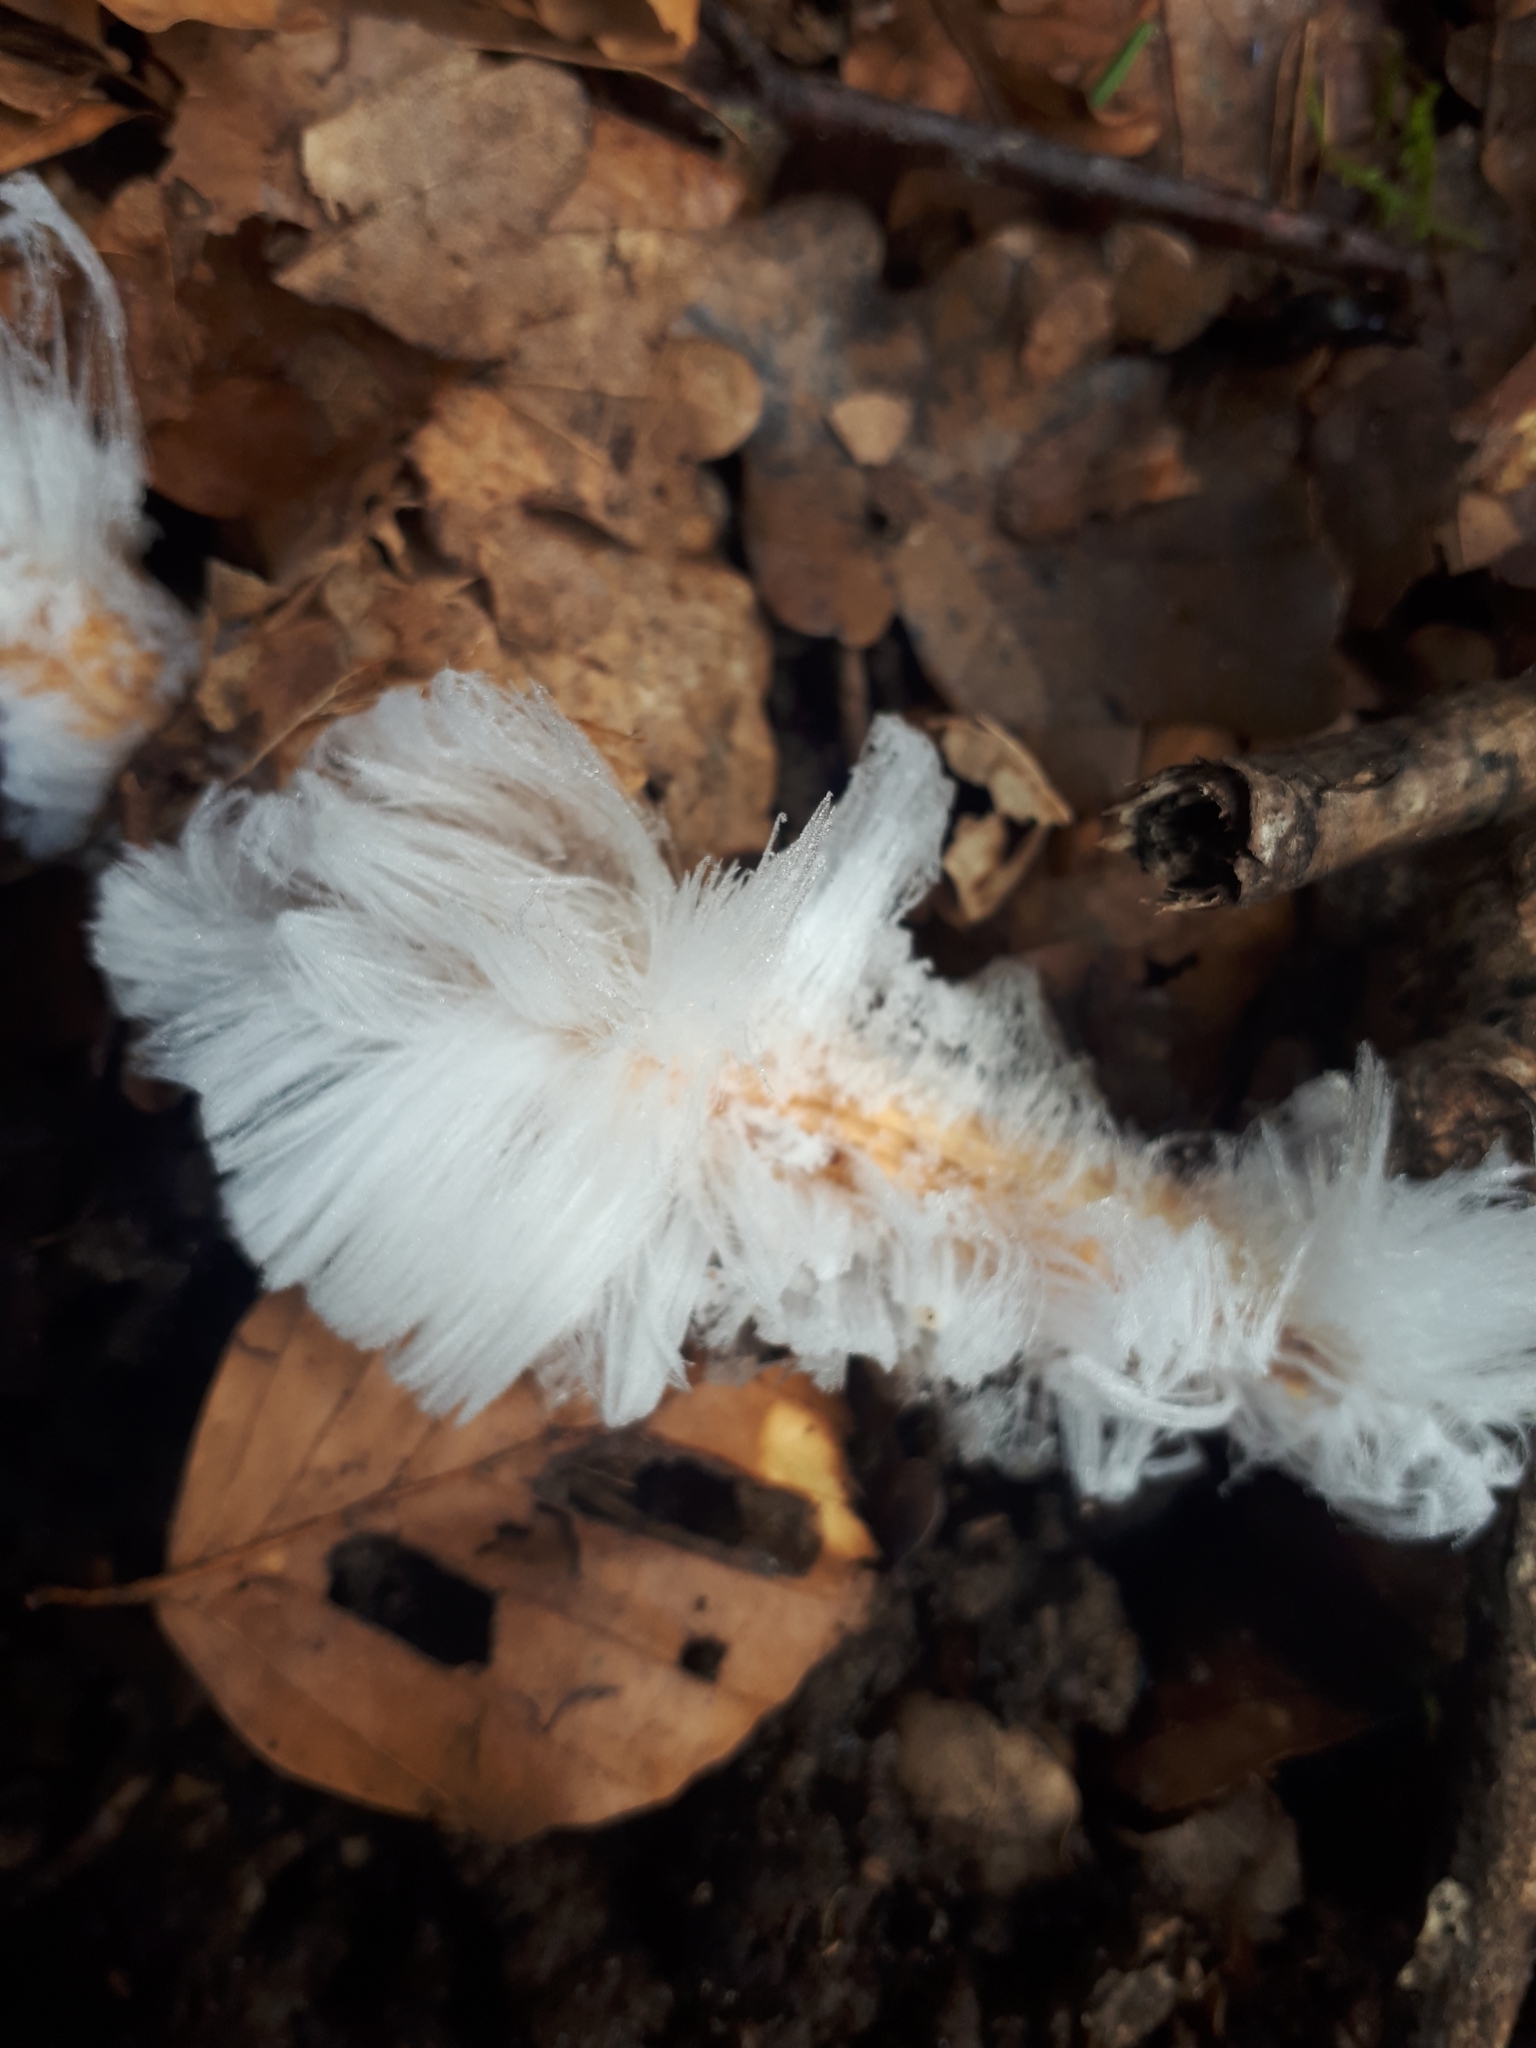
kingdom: Fungi
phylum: Basidiomycota
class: Agaricomycetes
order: Auriculariales
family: Auriculariaceae
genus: Exidiopsis
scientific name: Exidiopsis effusa
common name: Hair ice crust
